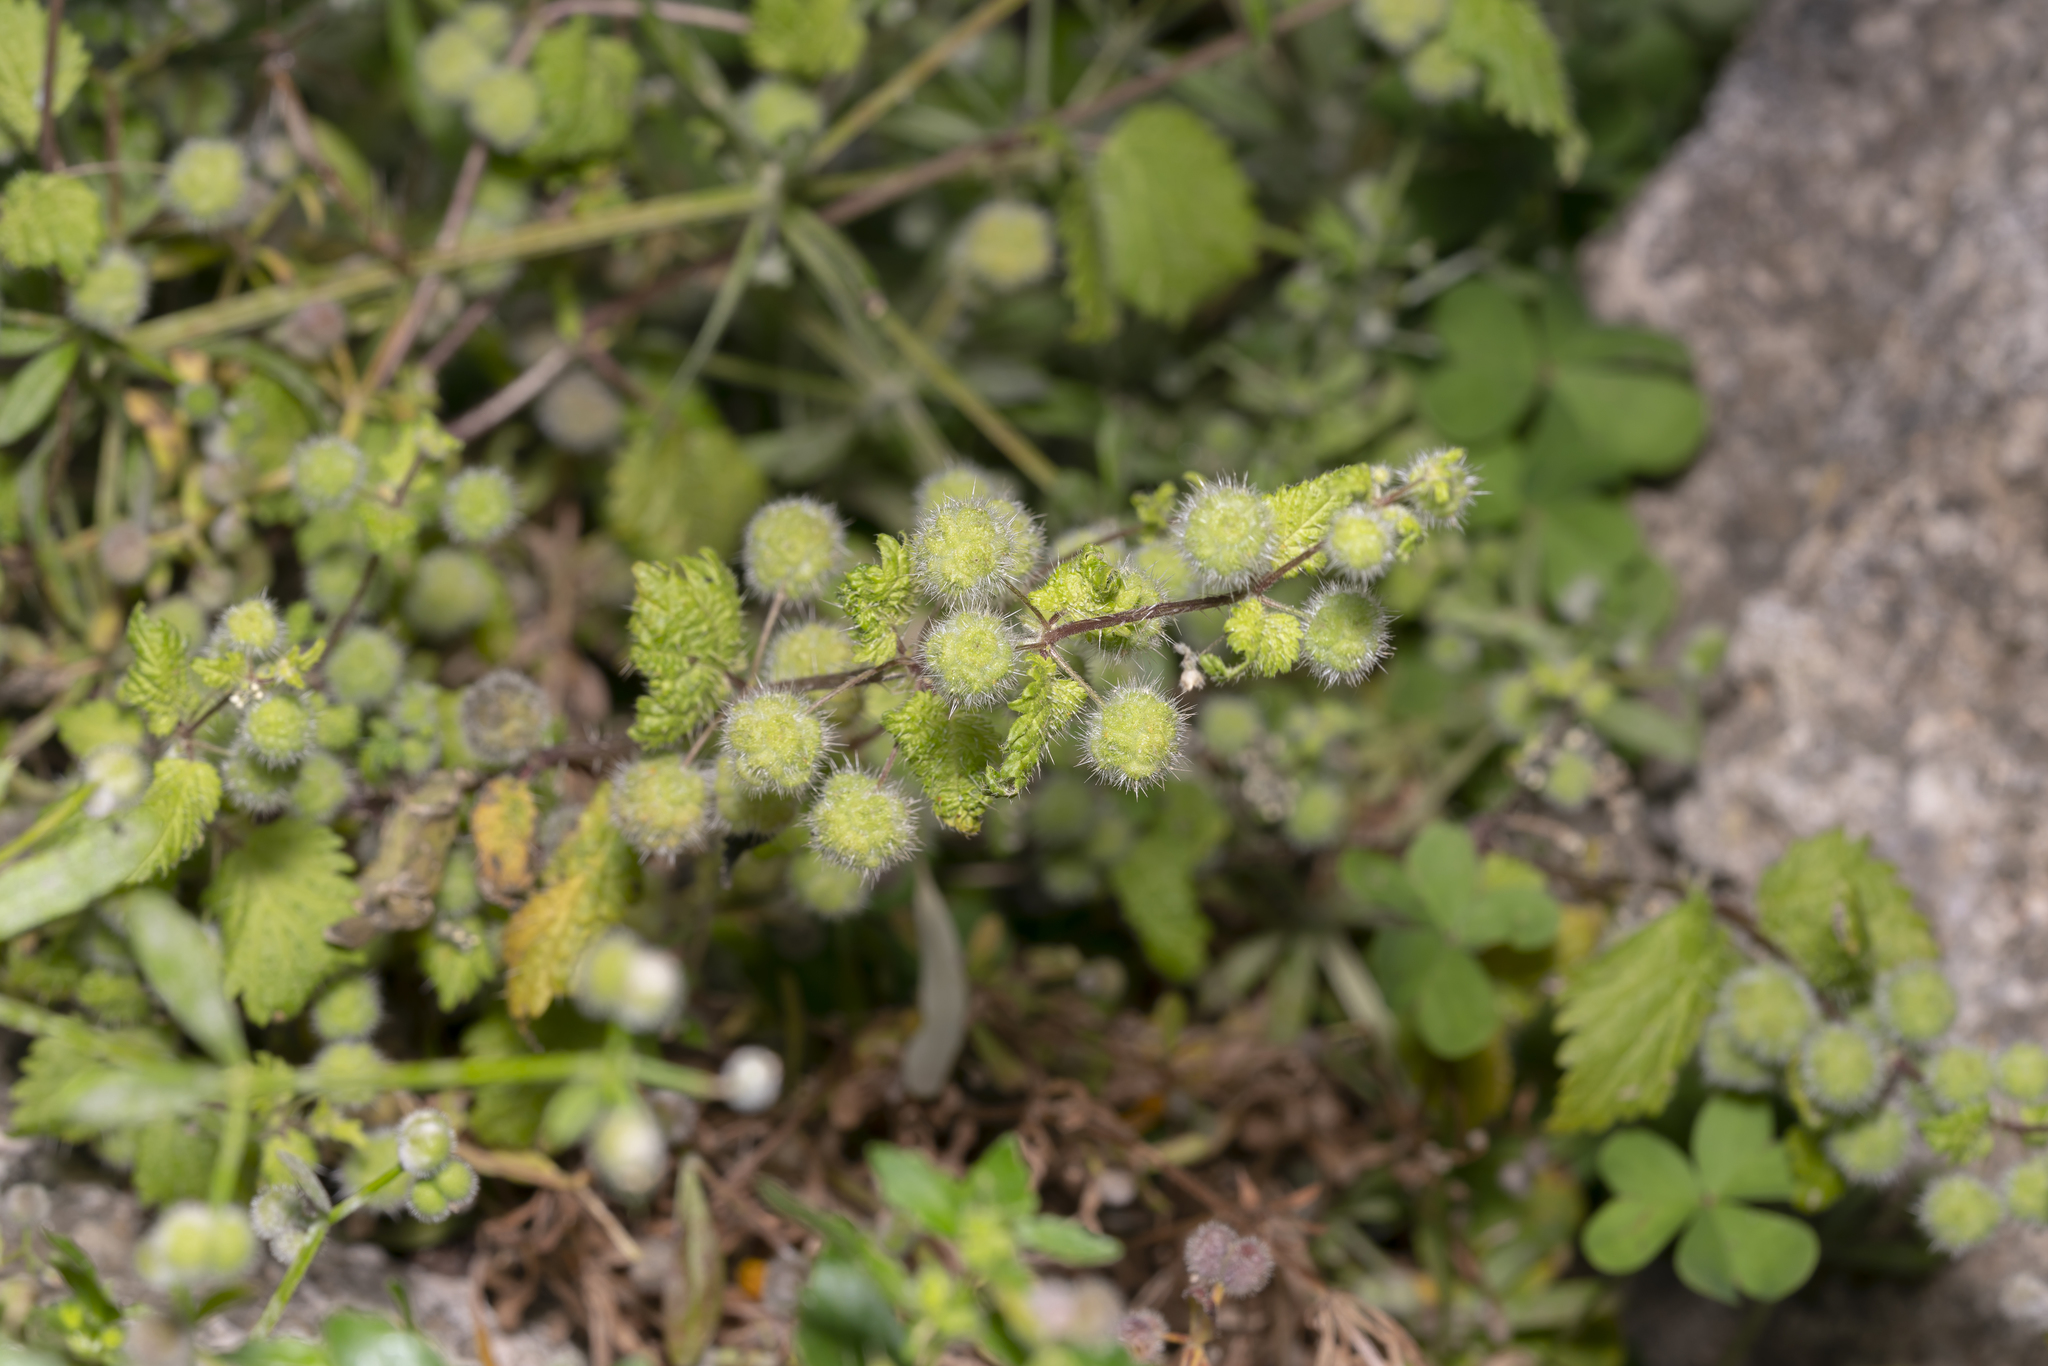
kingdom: Plantae
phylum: Tracheophyta
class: Magnoliopsida
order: Rosales
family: Urticaceae
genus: Urtica
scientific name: Urtica pilulifera
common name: Roman nettle
